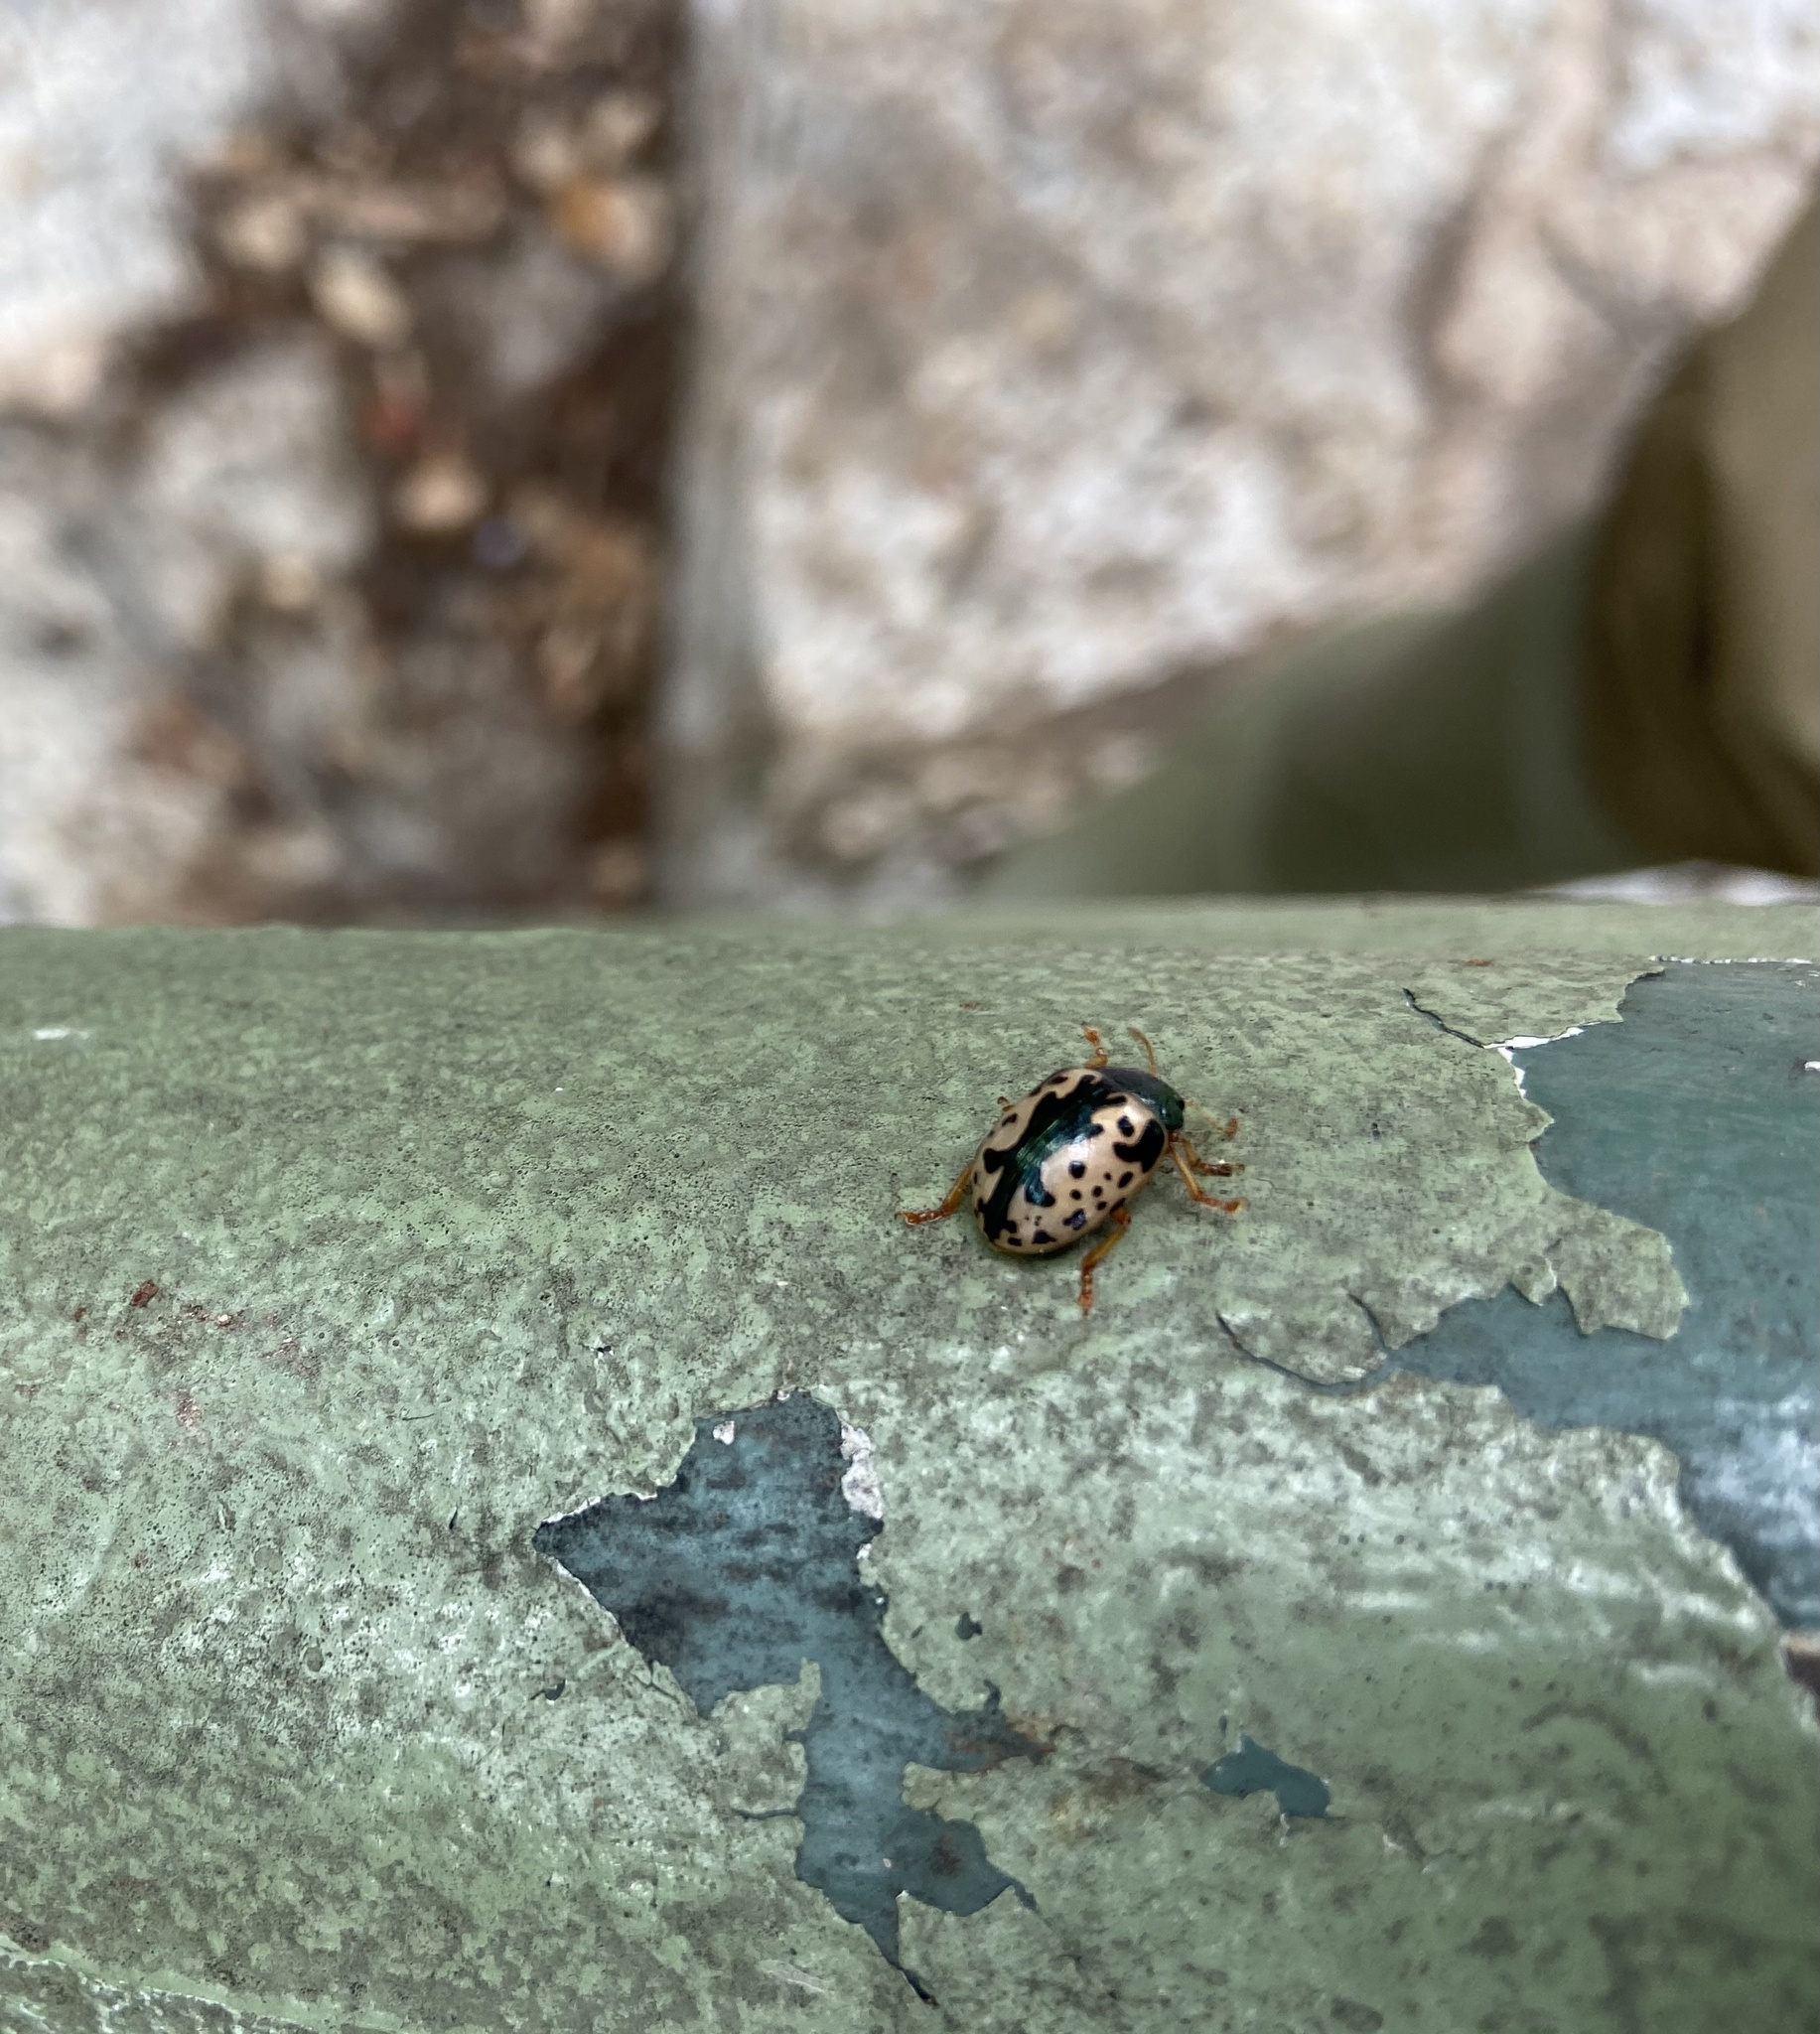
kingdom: Animalia
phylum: Arthropoda
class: Insecta
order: Coleoptera
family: Chrysomelidae
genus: Calligrapha
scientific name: Calligrapha scalaris
